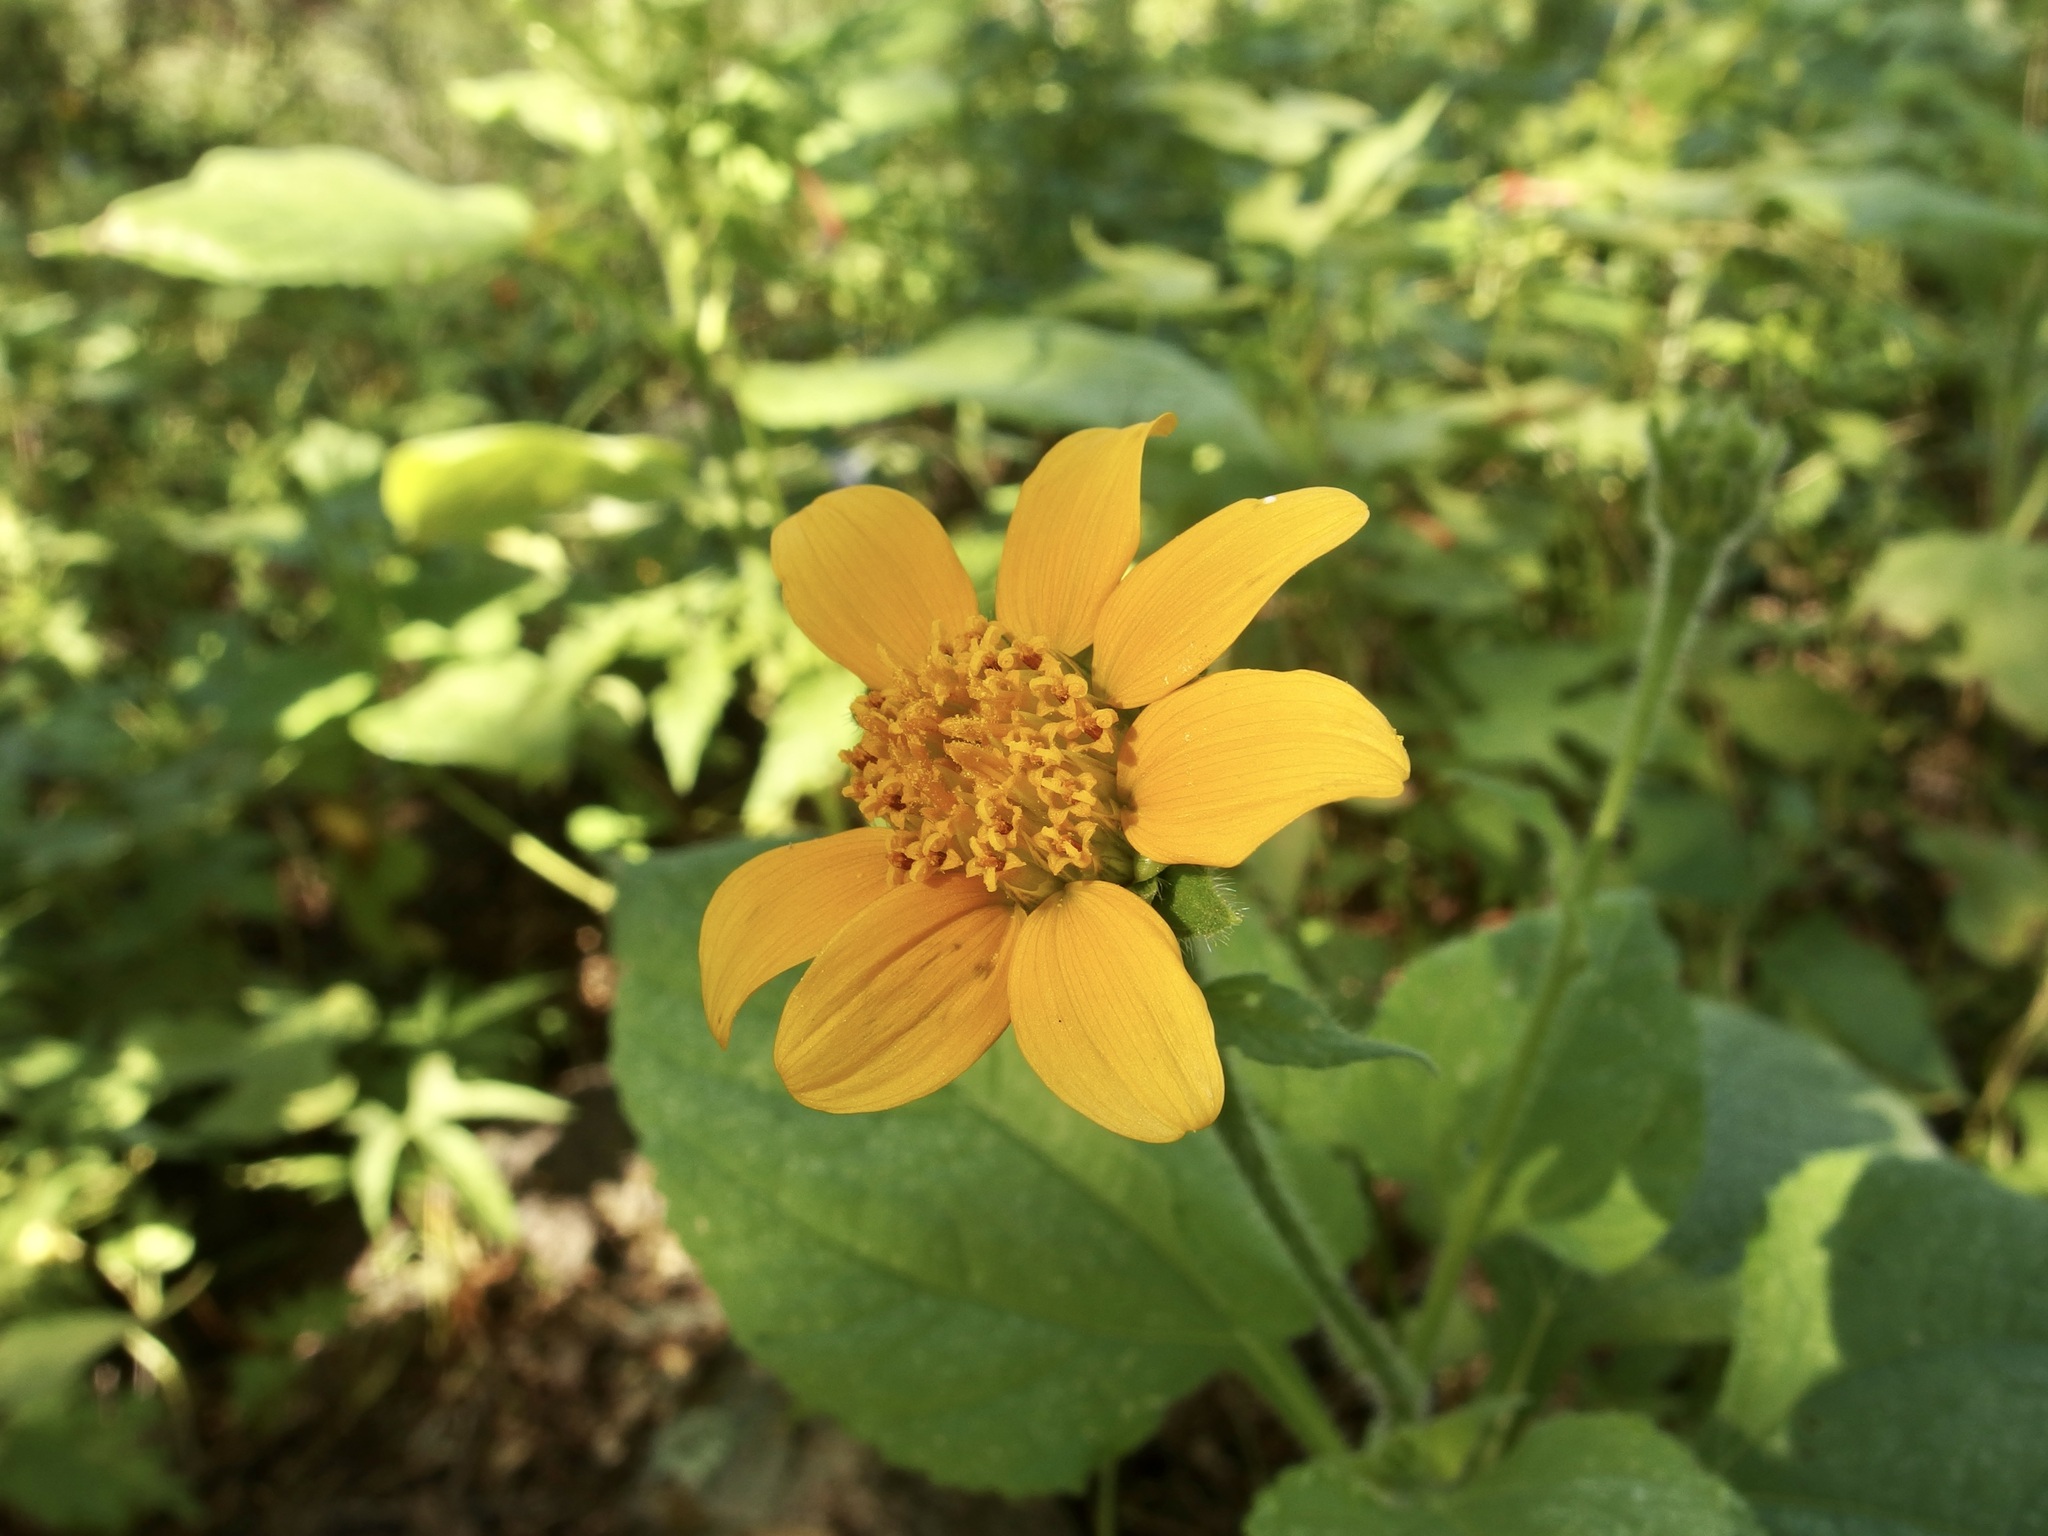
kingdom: Plantae
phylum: Tracheophyta
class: Magnoliopsida
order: Asterales
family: Asteraceae
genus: Tithonia
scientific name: Tithonia thurberi
